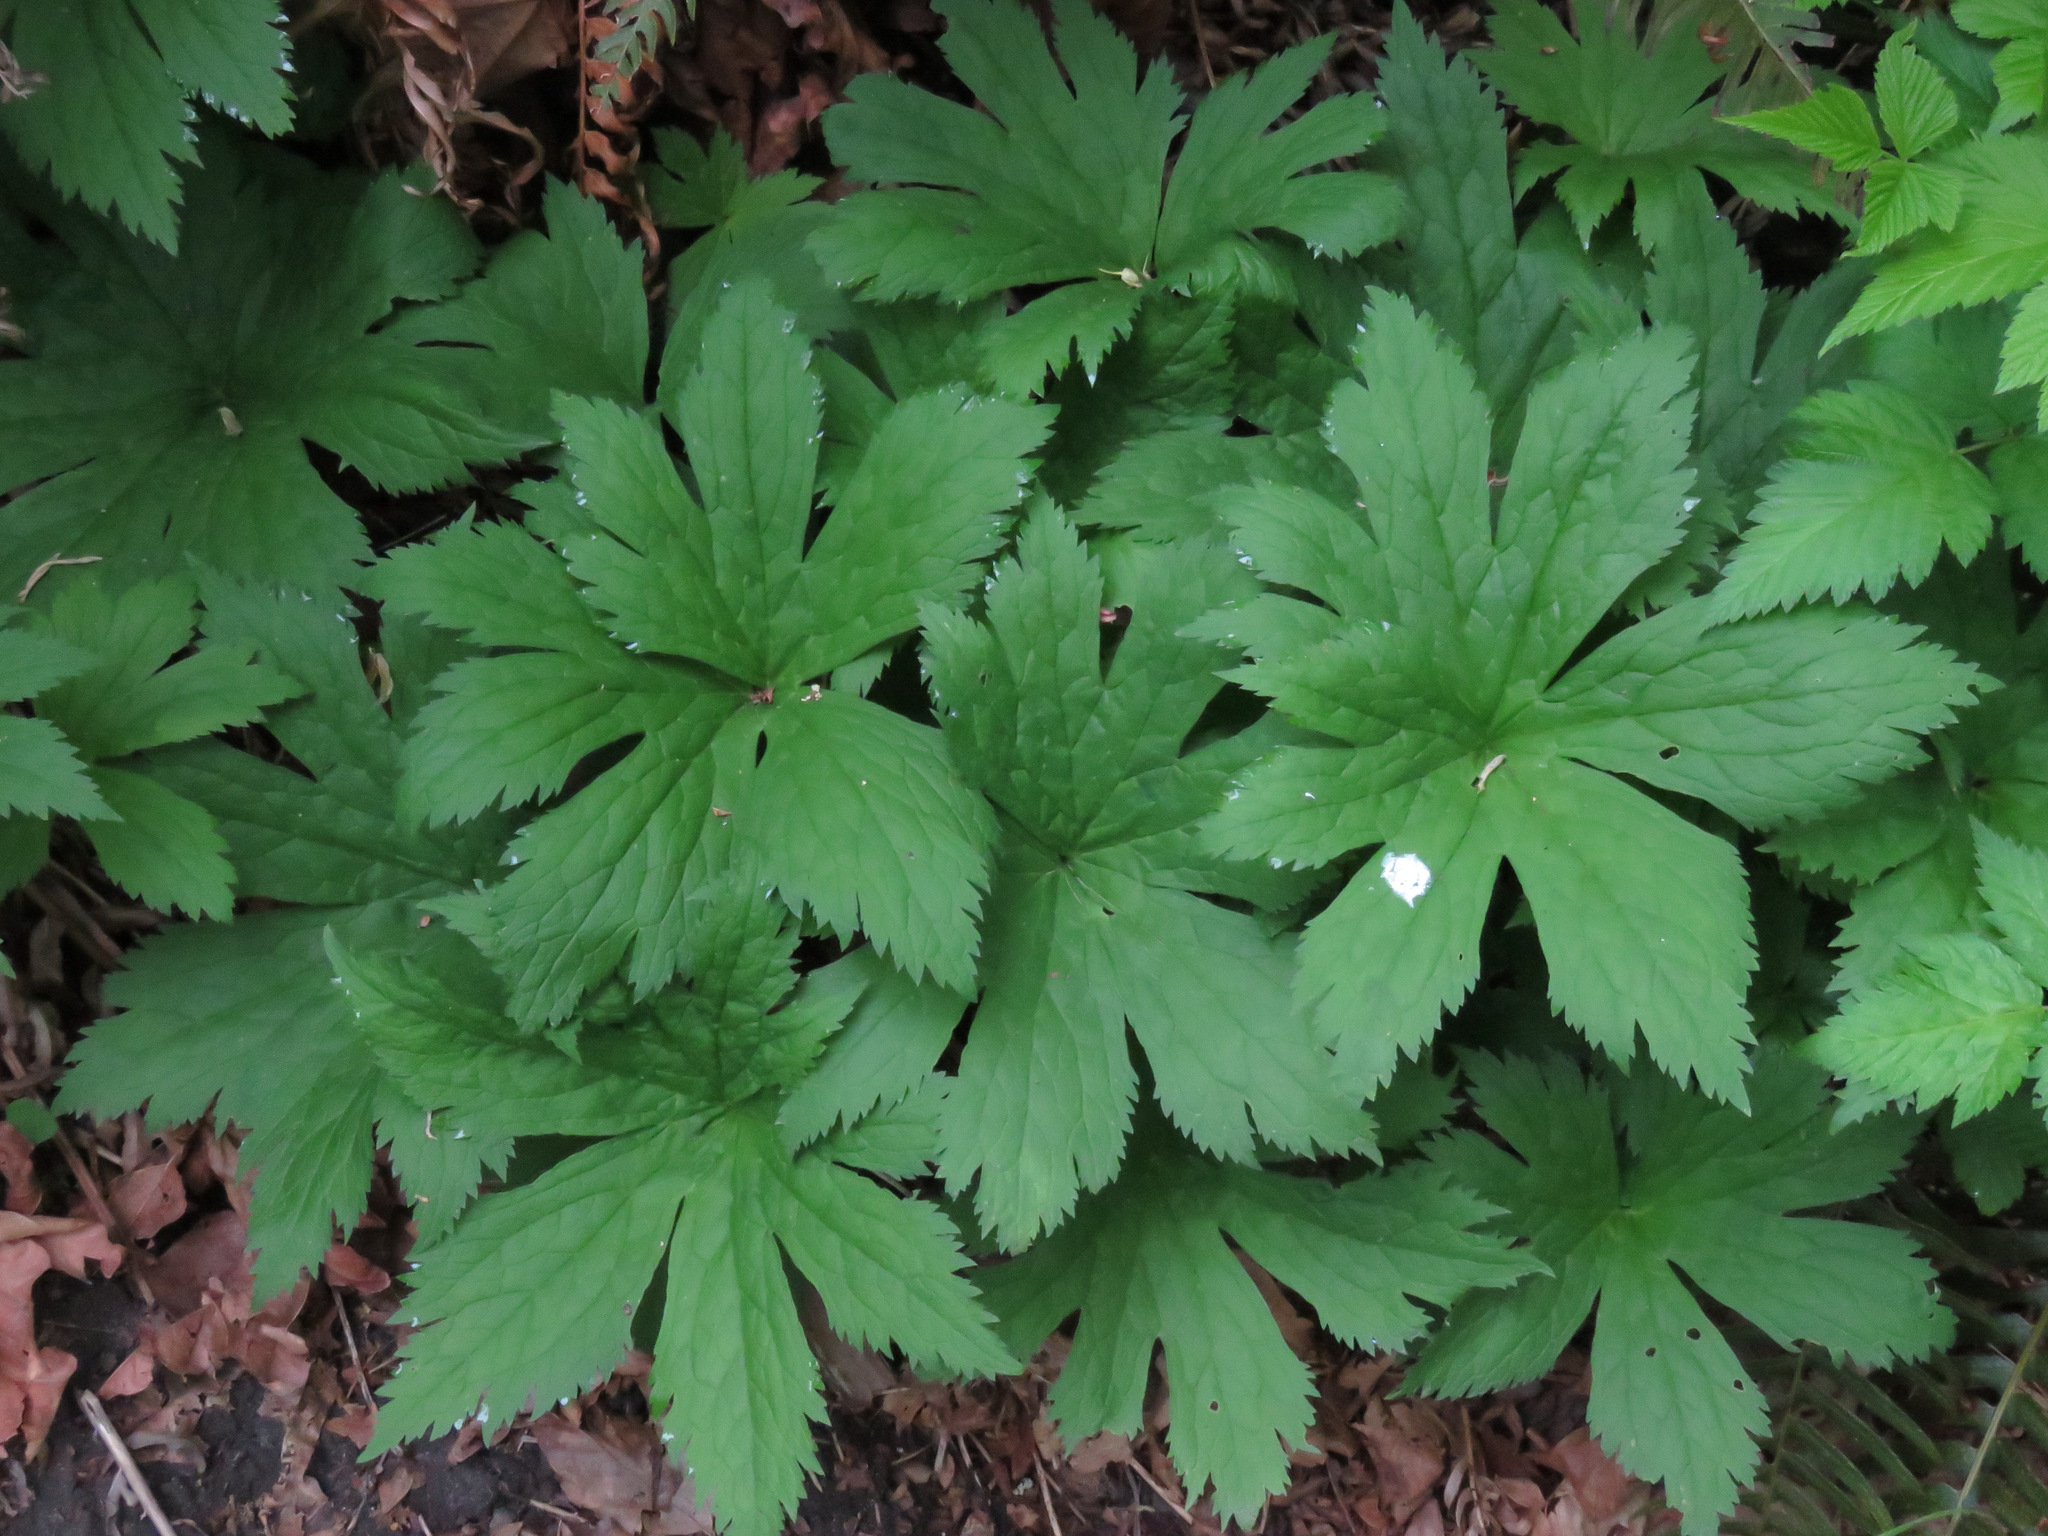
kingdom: Plantae
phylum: Tracheophyta
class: Magnoliopsida
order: Ranunculales
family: Ranunculaceae
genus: Trautvetteria
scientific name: Trautvetteria carolinensis
